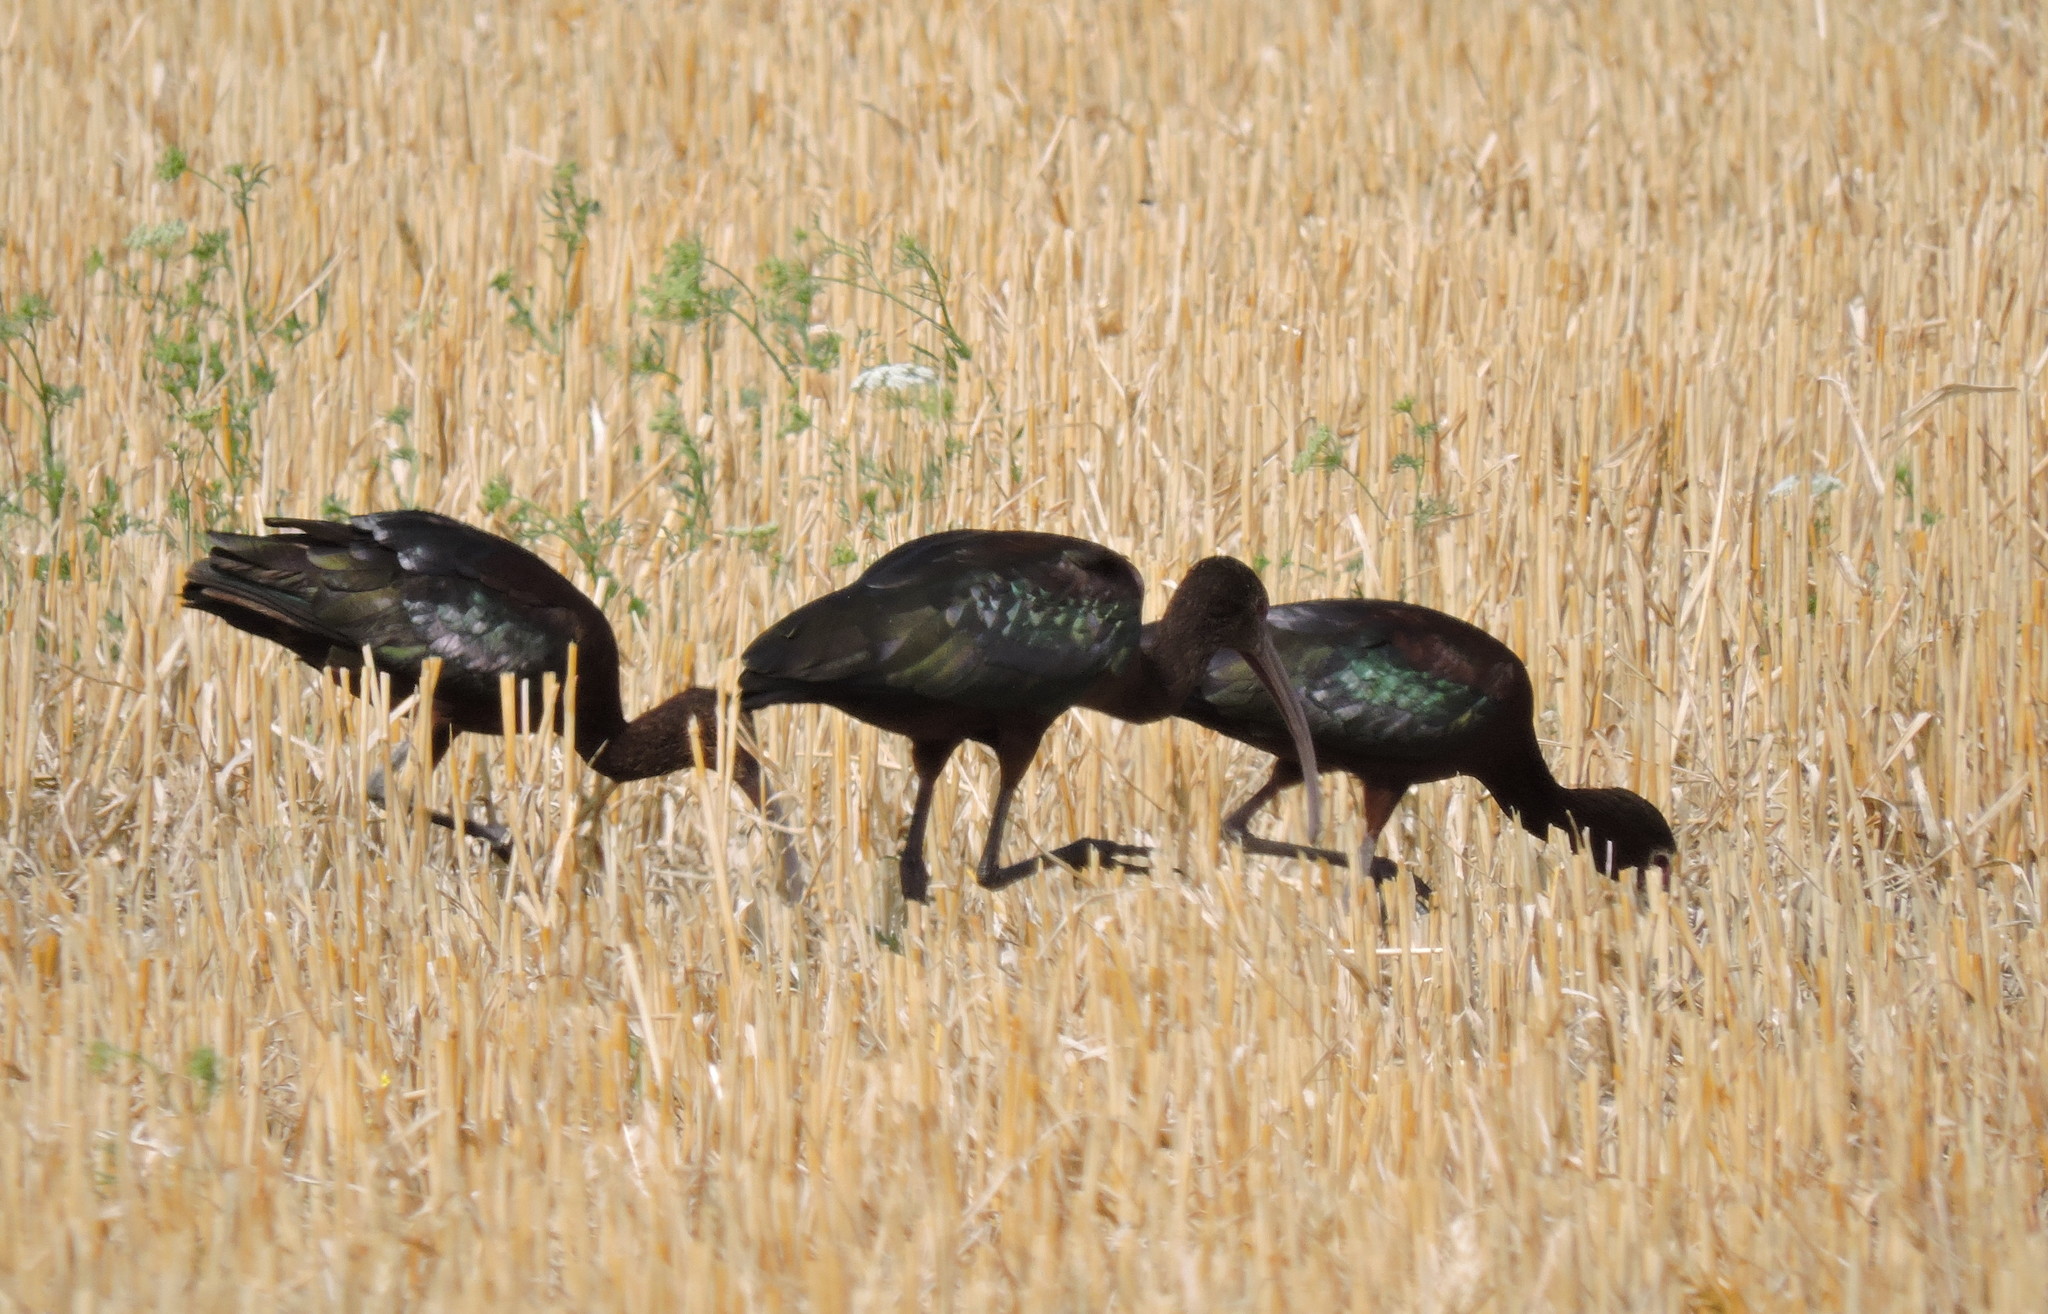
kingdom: Animalia
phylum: Chordata
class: Aves
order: Pelecaniformes
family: Threskiornithidae
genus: Plegadis
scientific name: Plegadis chihi
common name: White-faced ibis
